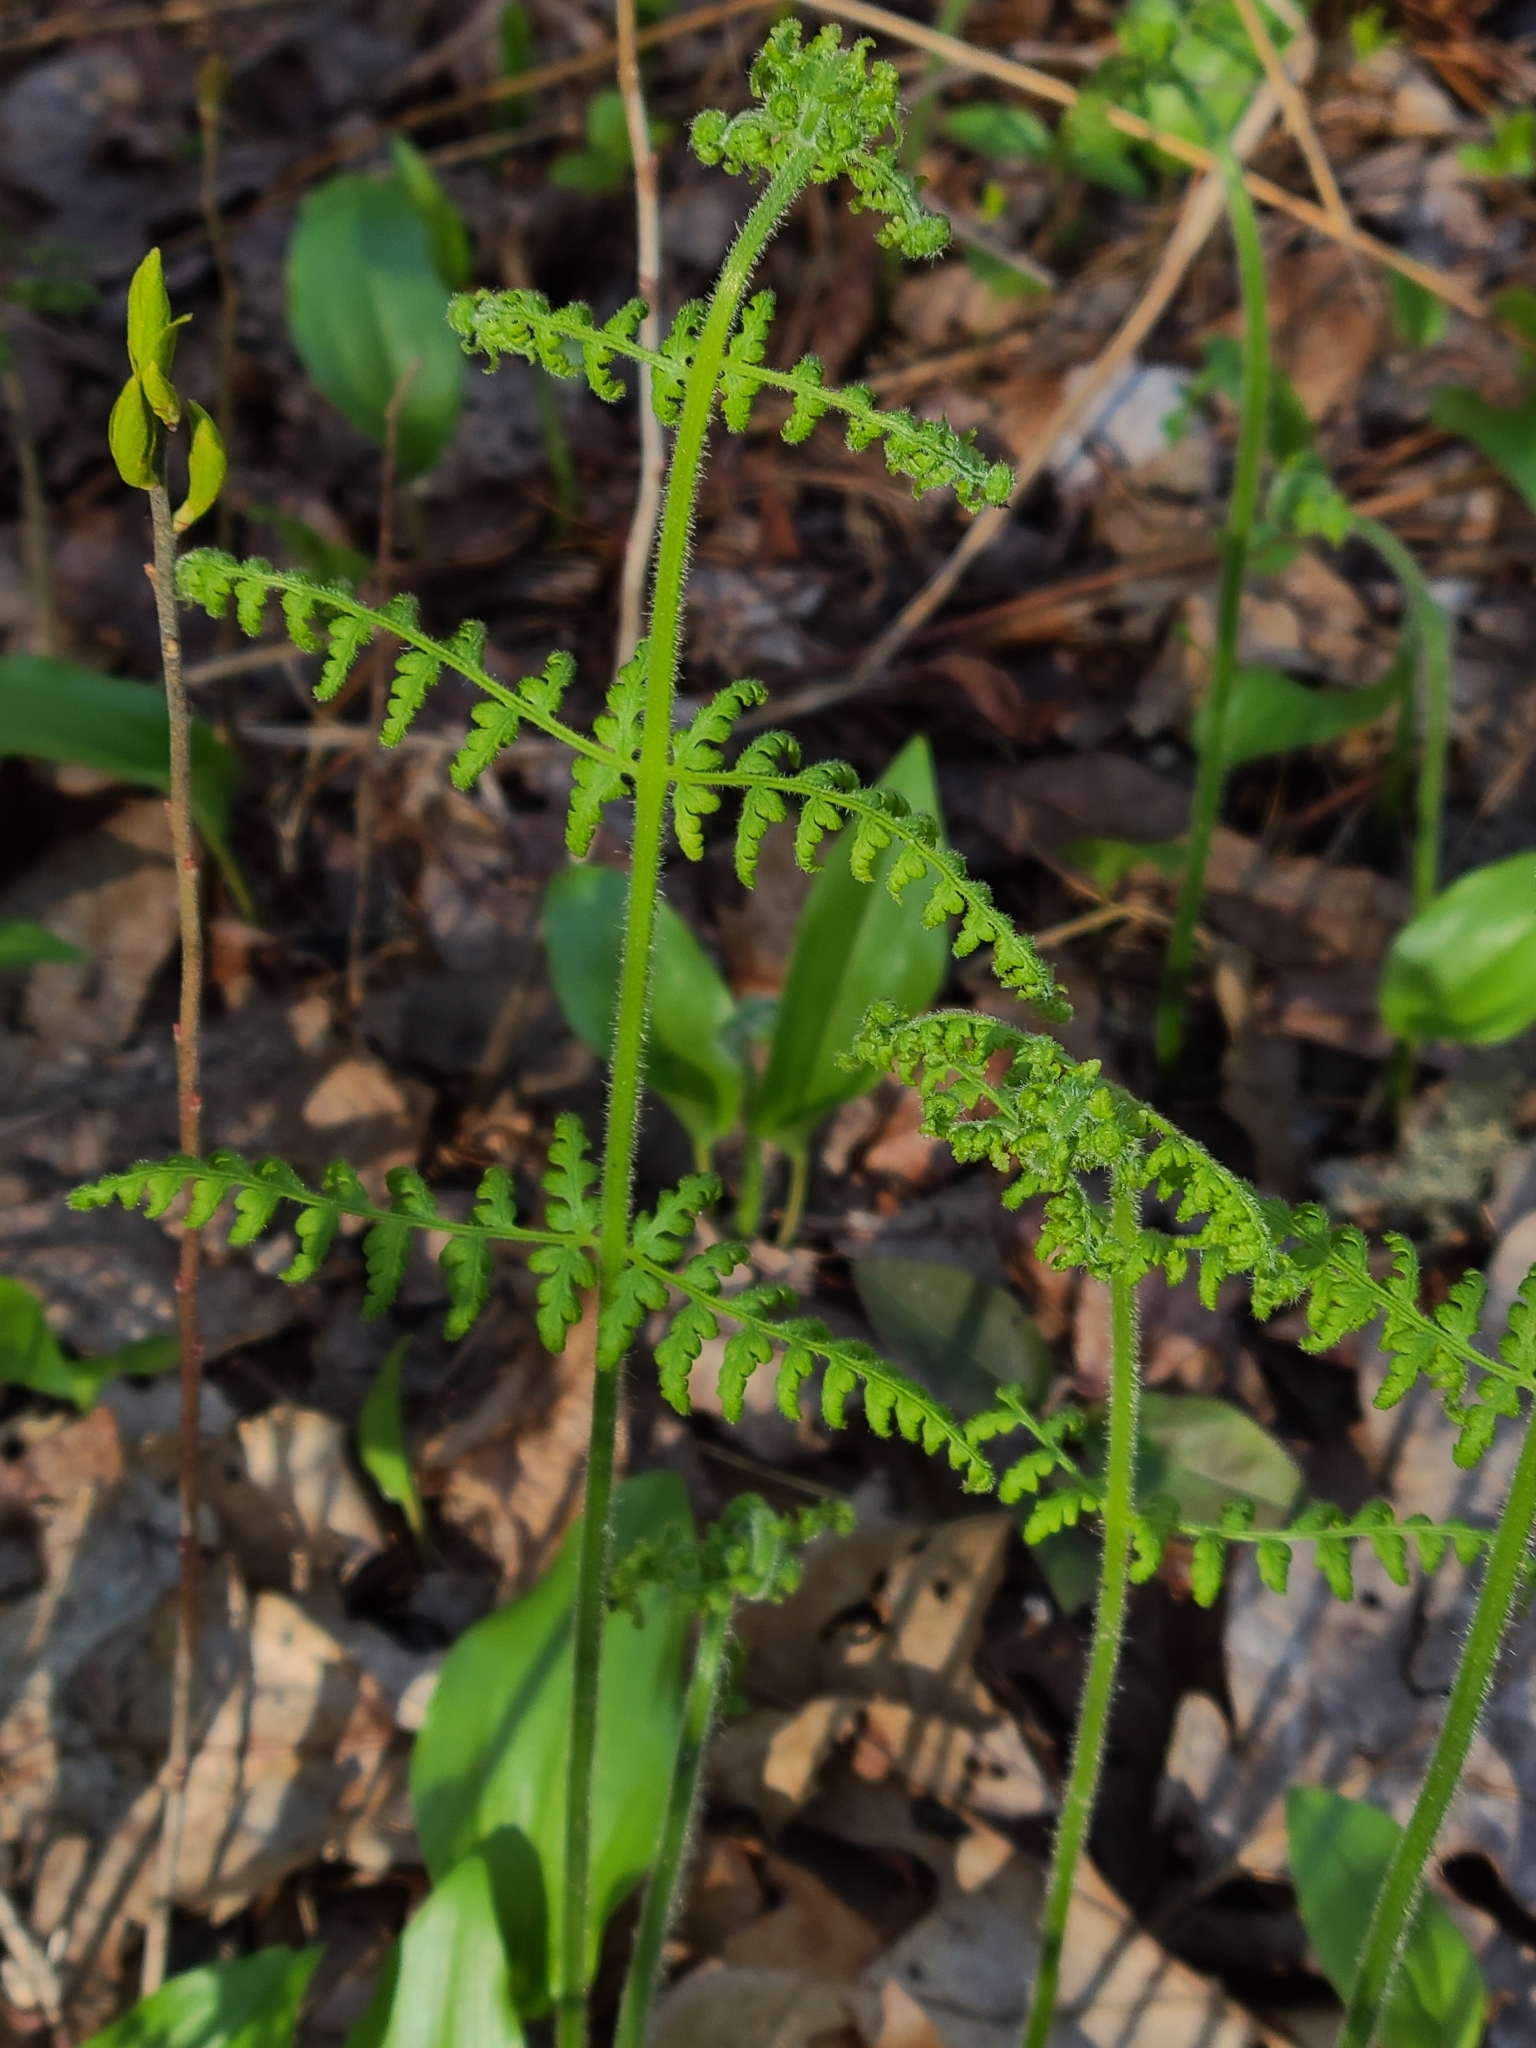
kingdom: Plantae
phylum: Tracheophyta
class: Polypodiopsida
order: Polypodiales
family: Dennstaedtiaceae
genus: Sitobolium
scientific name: Sitobolium punctilobum
